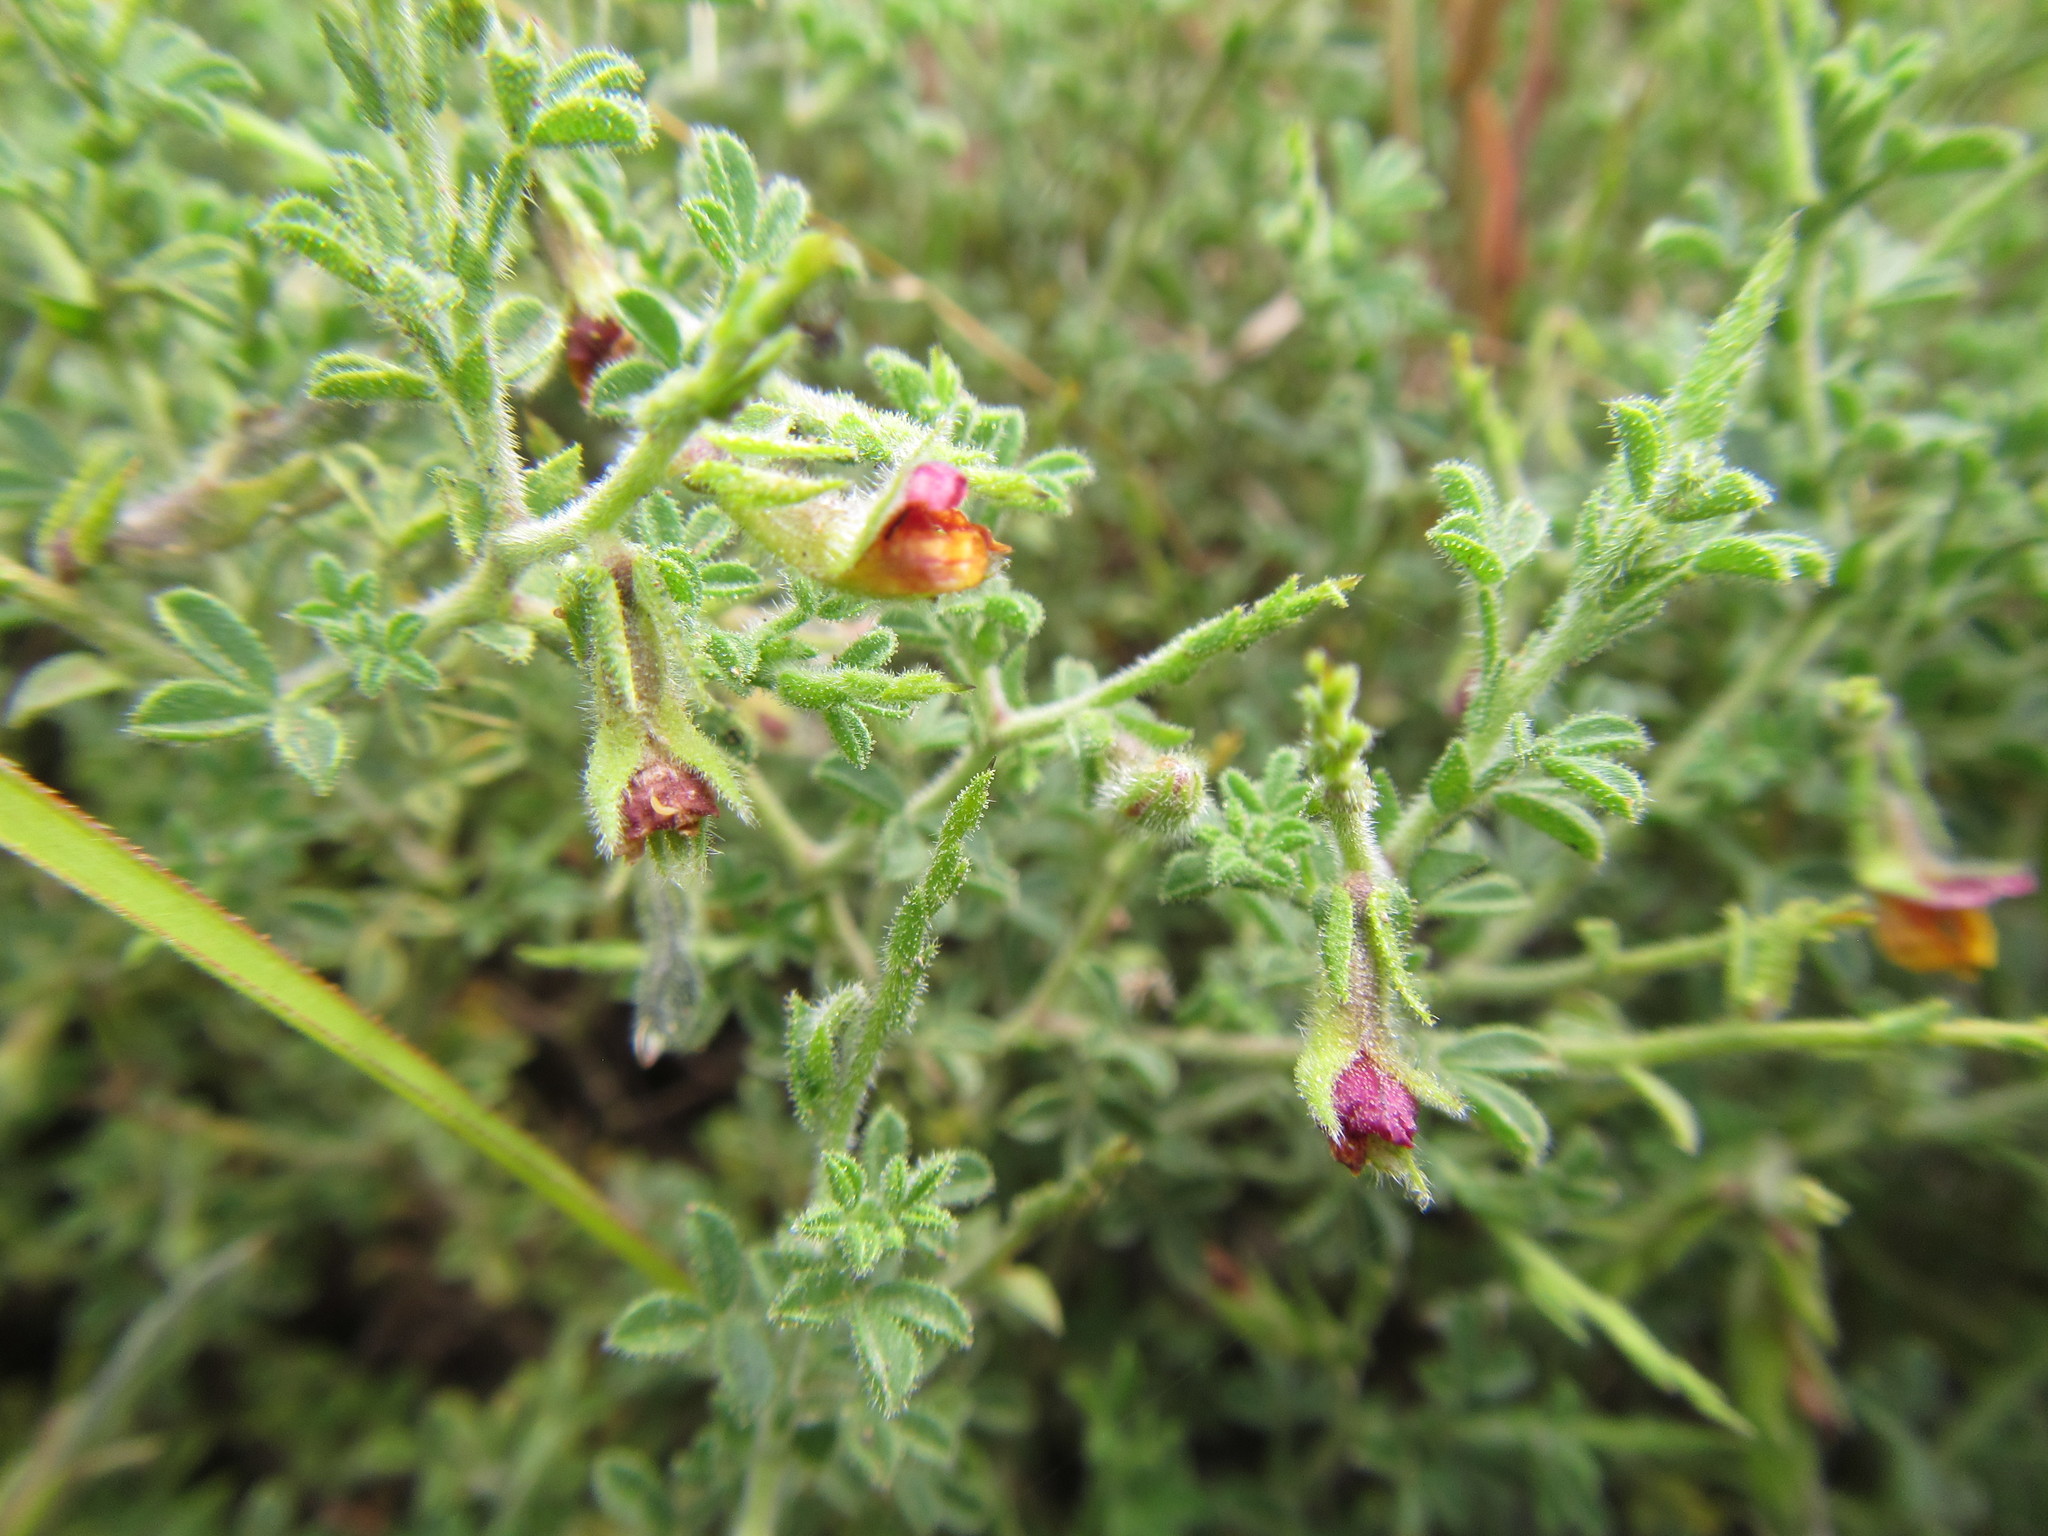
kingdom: Plantae
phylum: Tracheophyta
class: Magnoliopsida
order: Fabales
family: Fabaceae
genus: Melolobium
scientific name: Melolobium obcordatum
